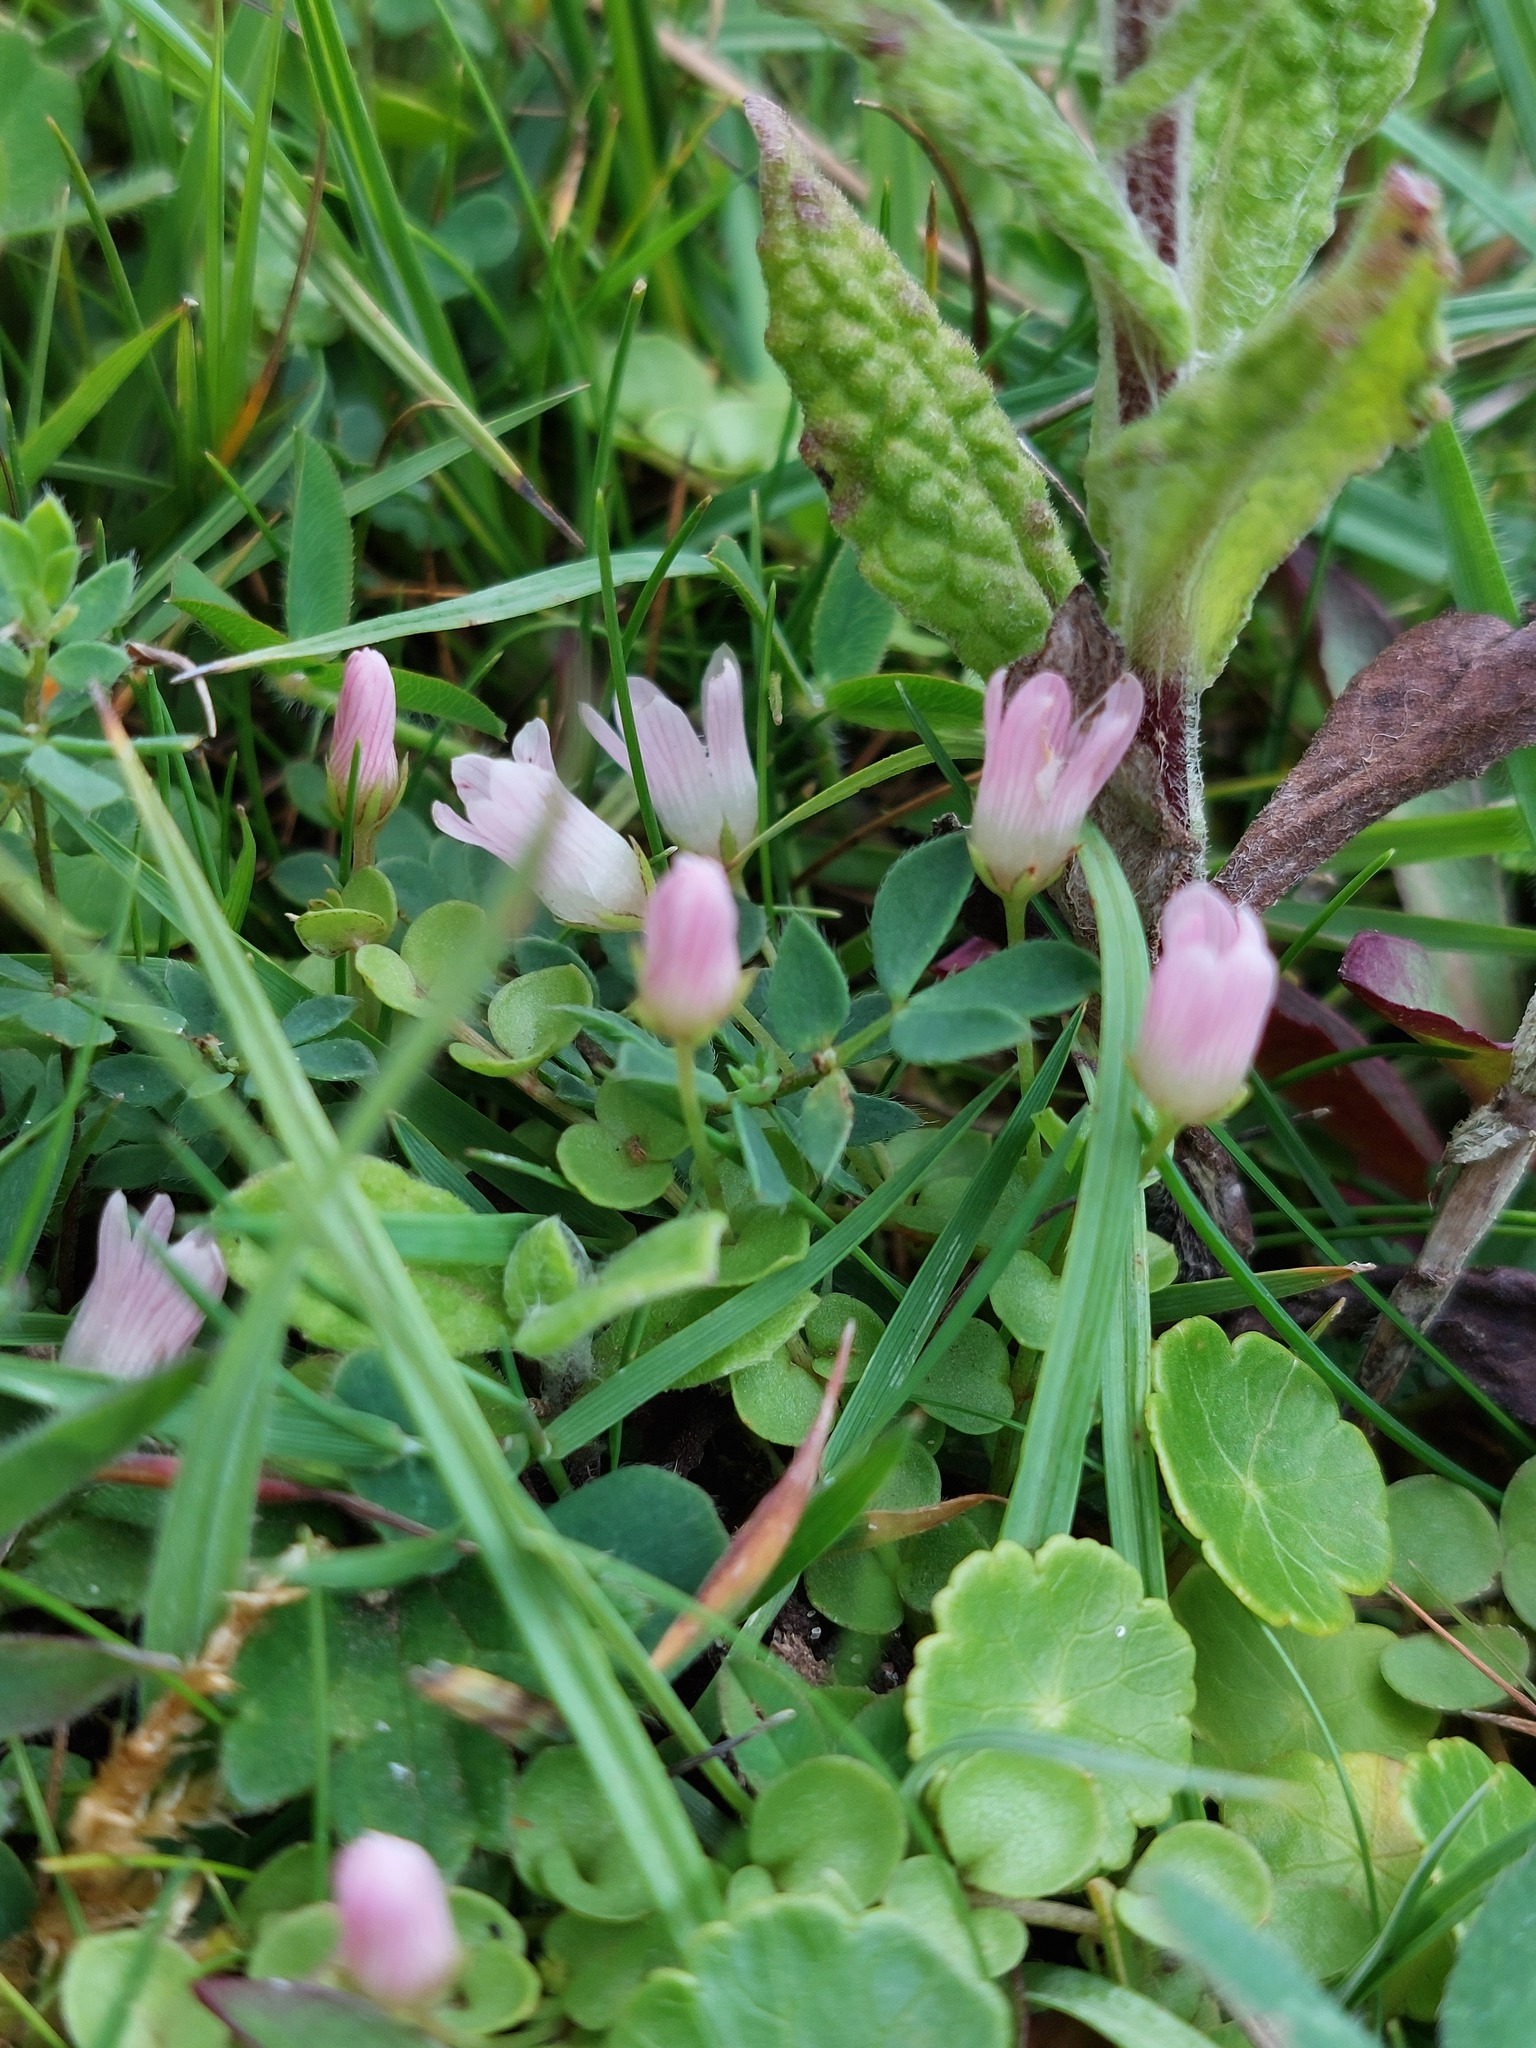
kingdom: Plantae
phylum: Tracheophyta
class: Magnoliopsida
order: Ericales
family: Primulaceae
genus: Lysimachia
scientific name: Lysimachia tenella
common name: European bog pimpernel
